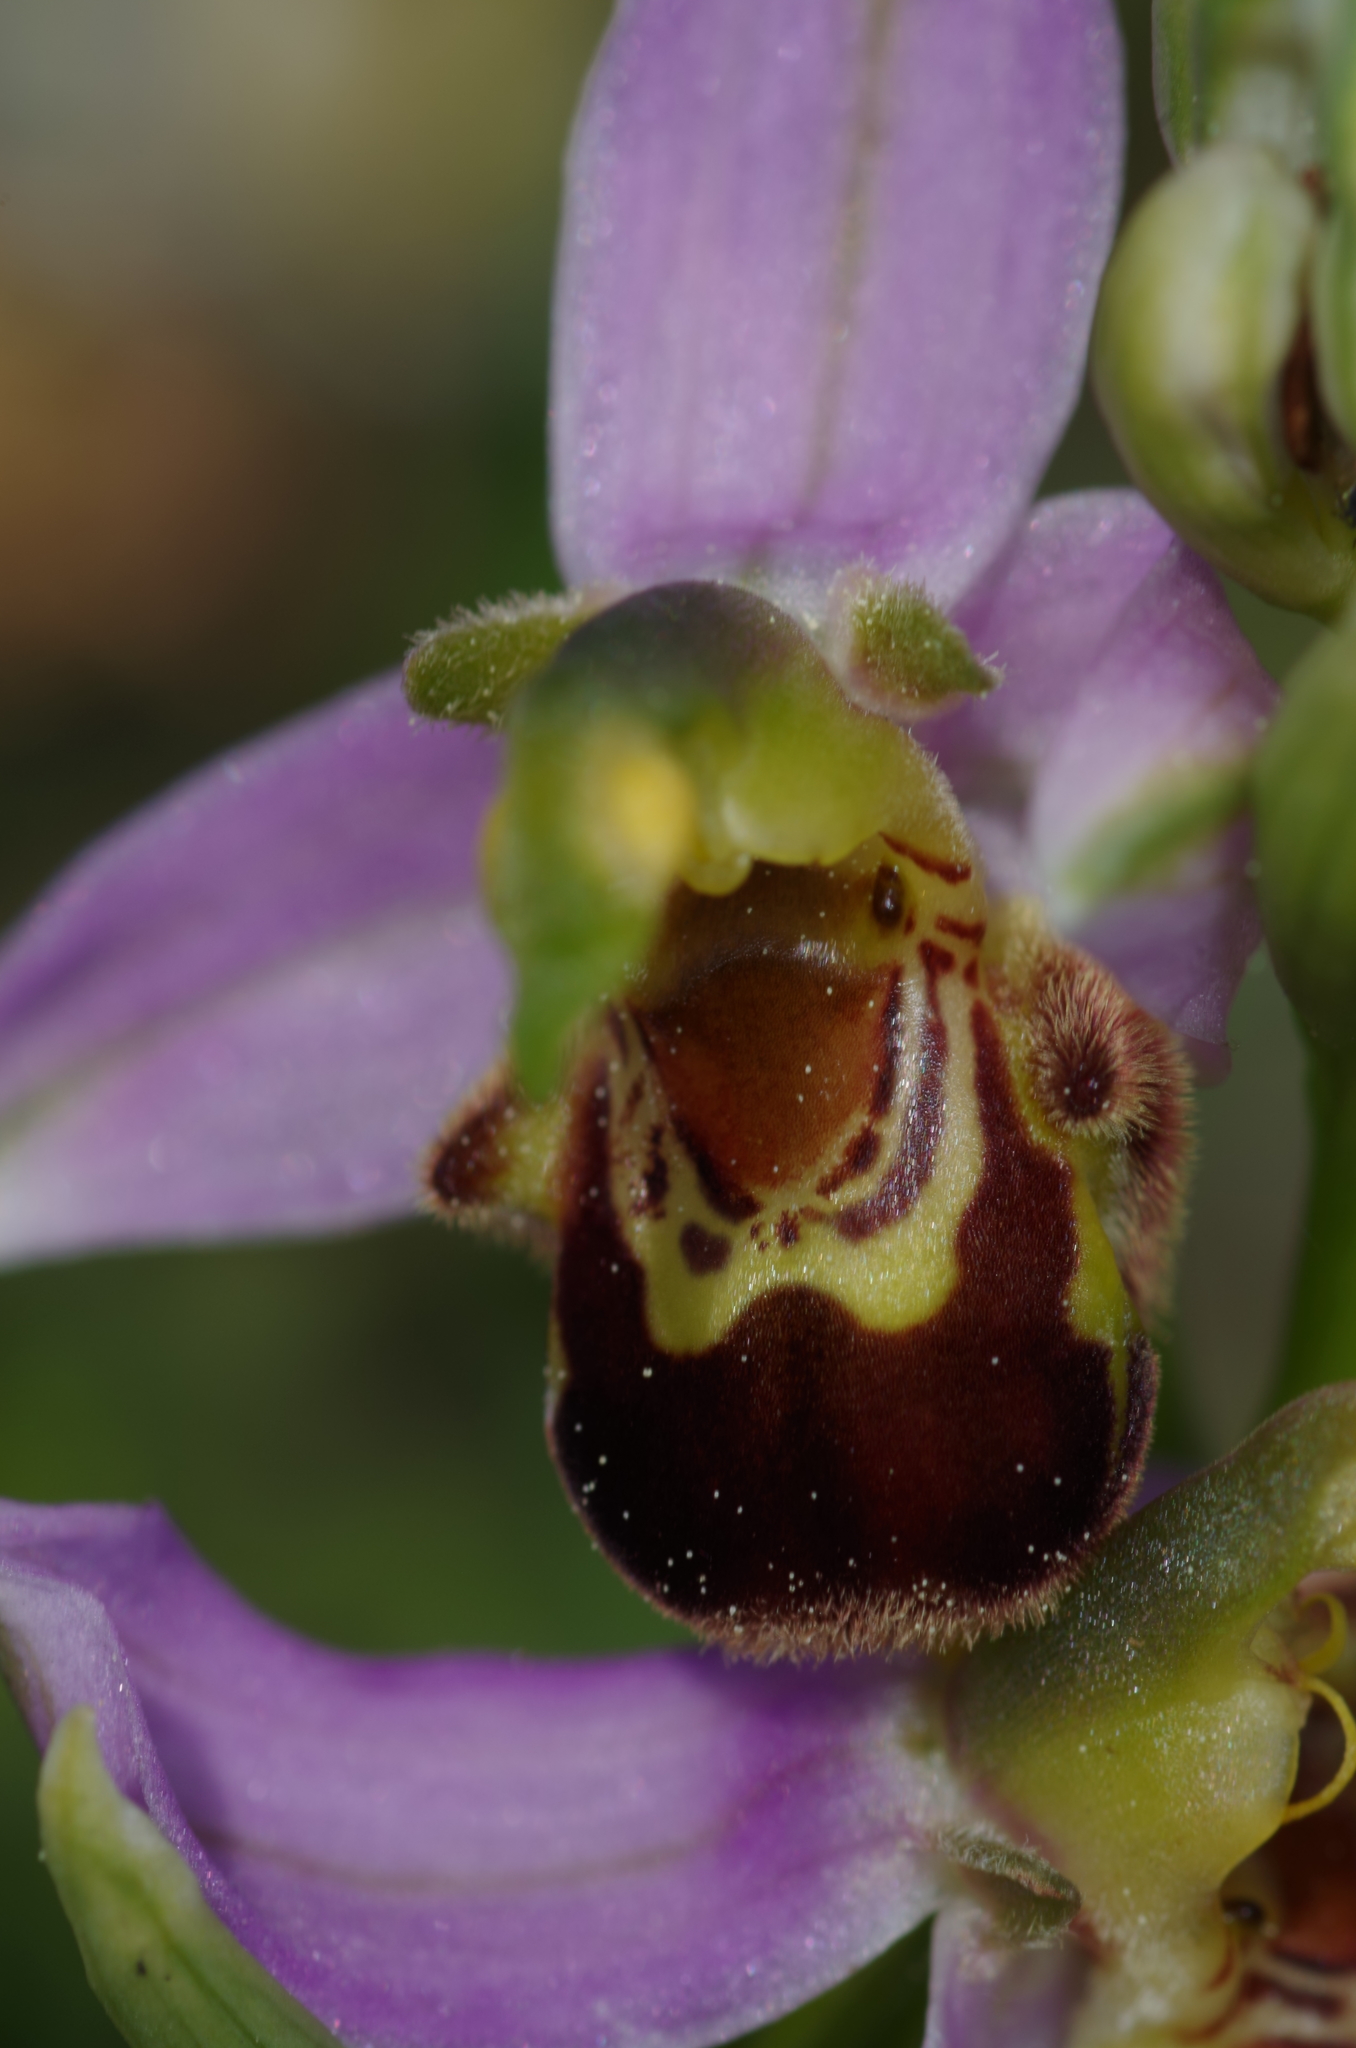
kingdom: Plantae
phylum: Tracheophyta
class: Liliopsida
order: Asparagales
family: Orchidaceae
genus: Ophrys
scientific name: Ophrys apifera
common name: Bee orchid
